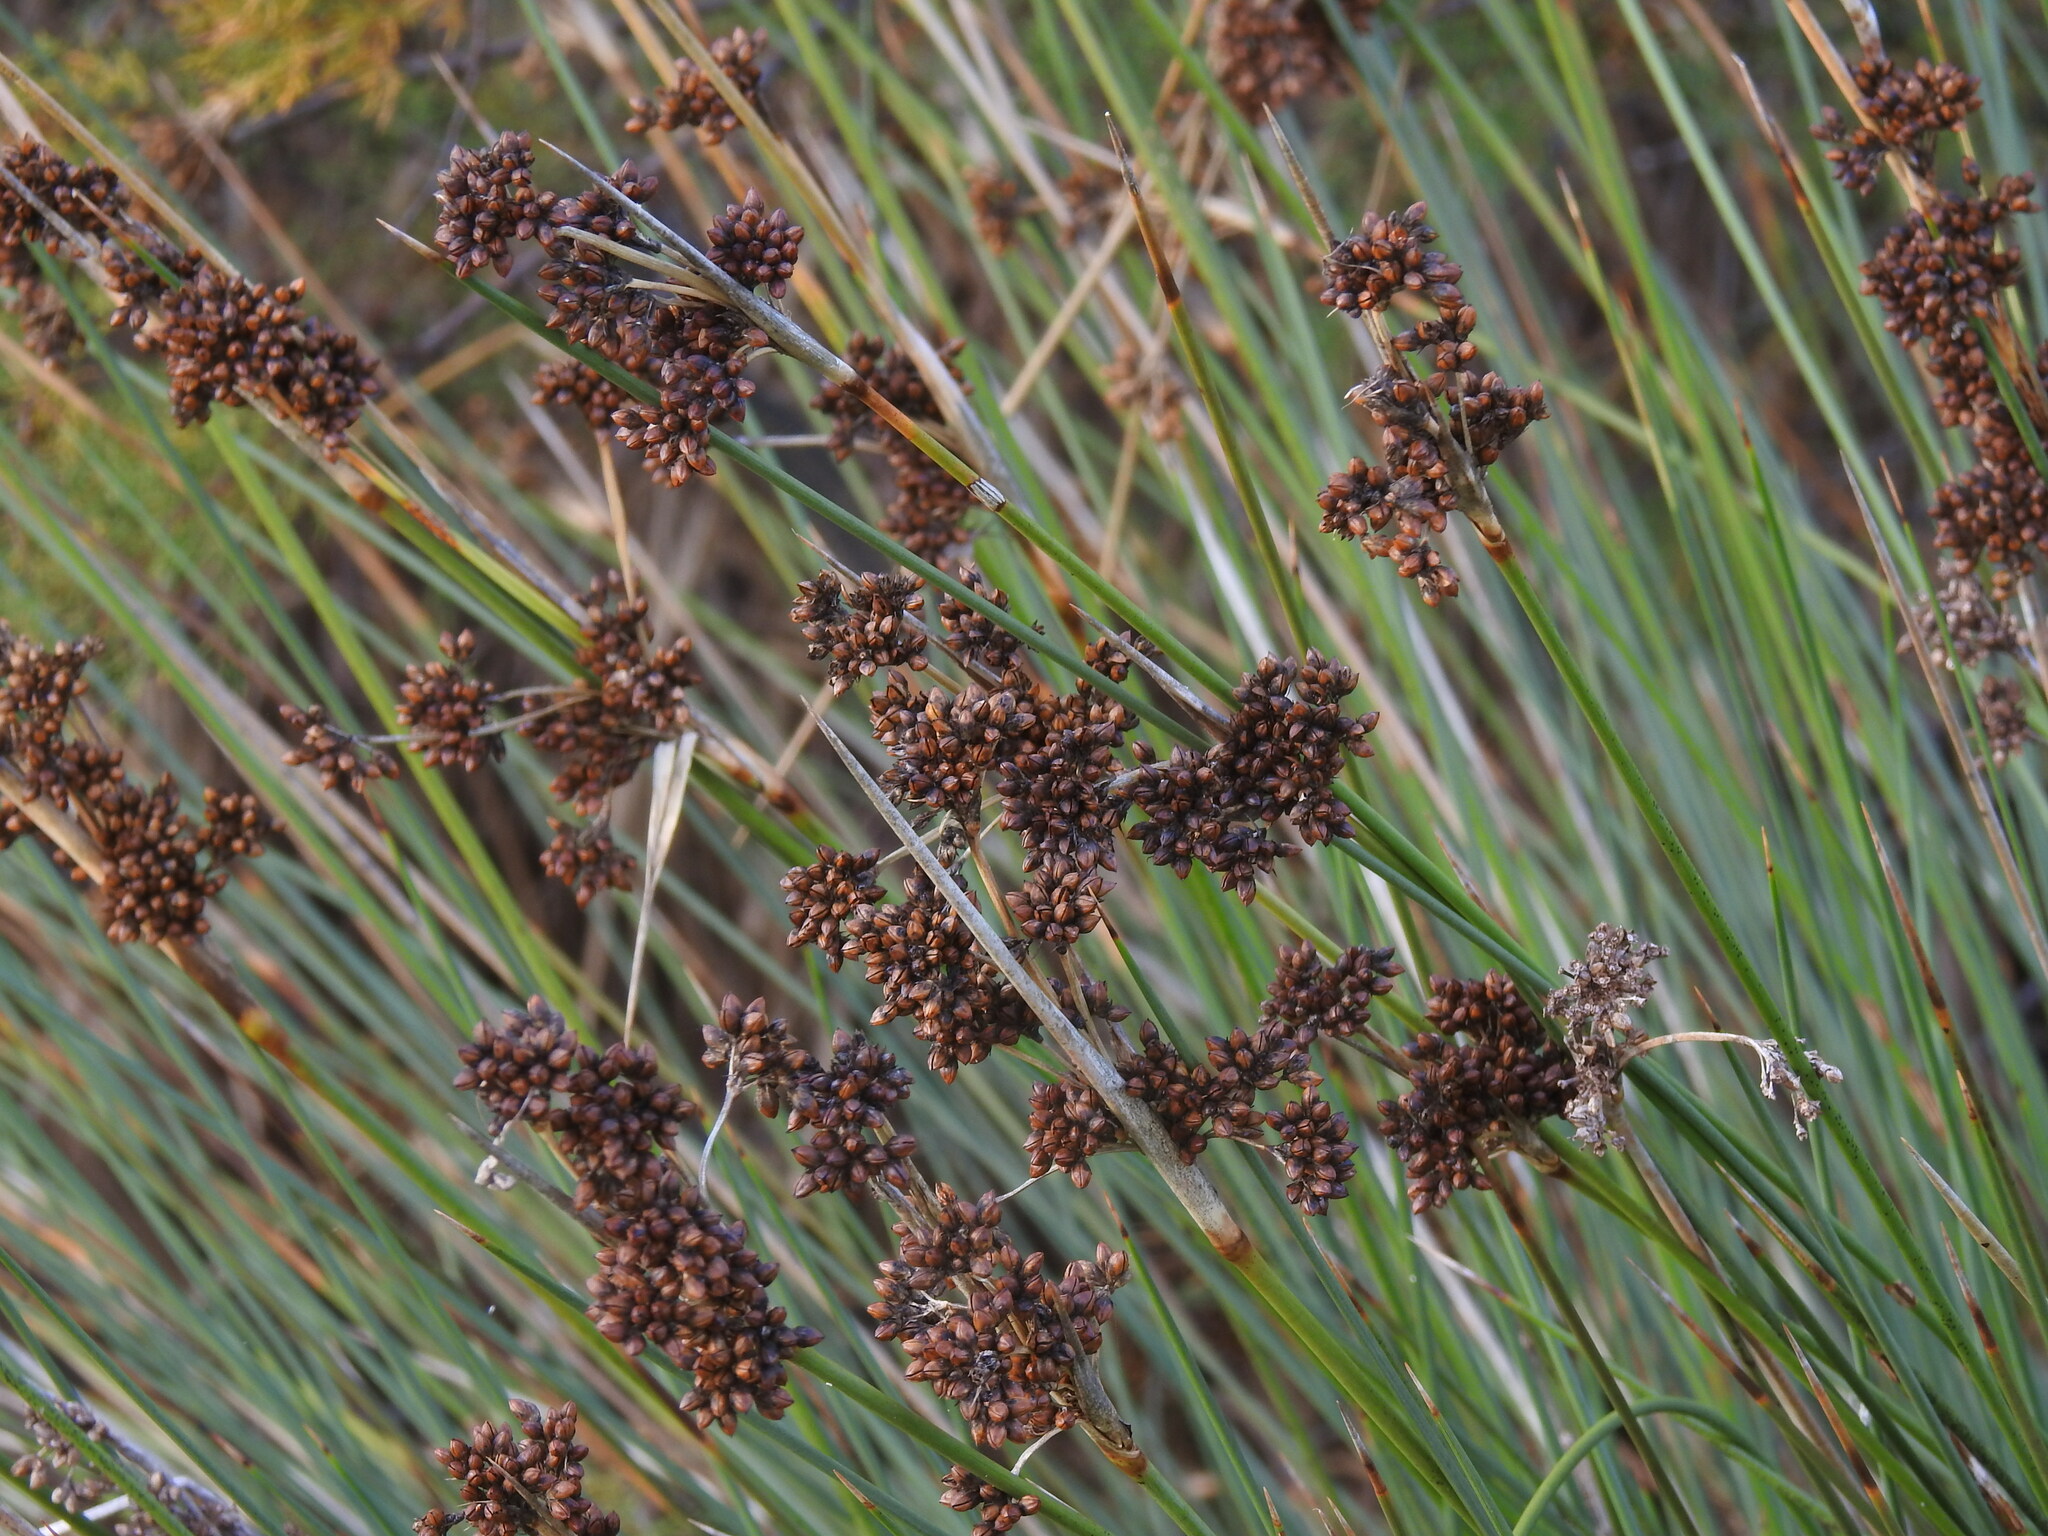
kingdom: Plantae
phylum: Tracheophyta
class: Liliopsida
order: Poales
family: Juncaceae
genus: Juncus
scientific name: Juncus acutus
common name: Sharp rush
